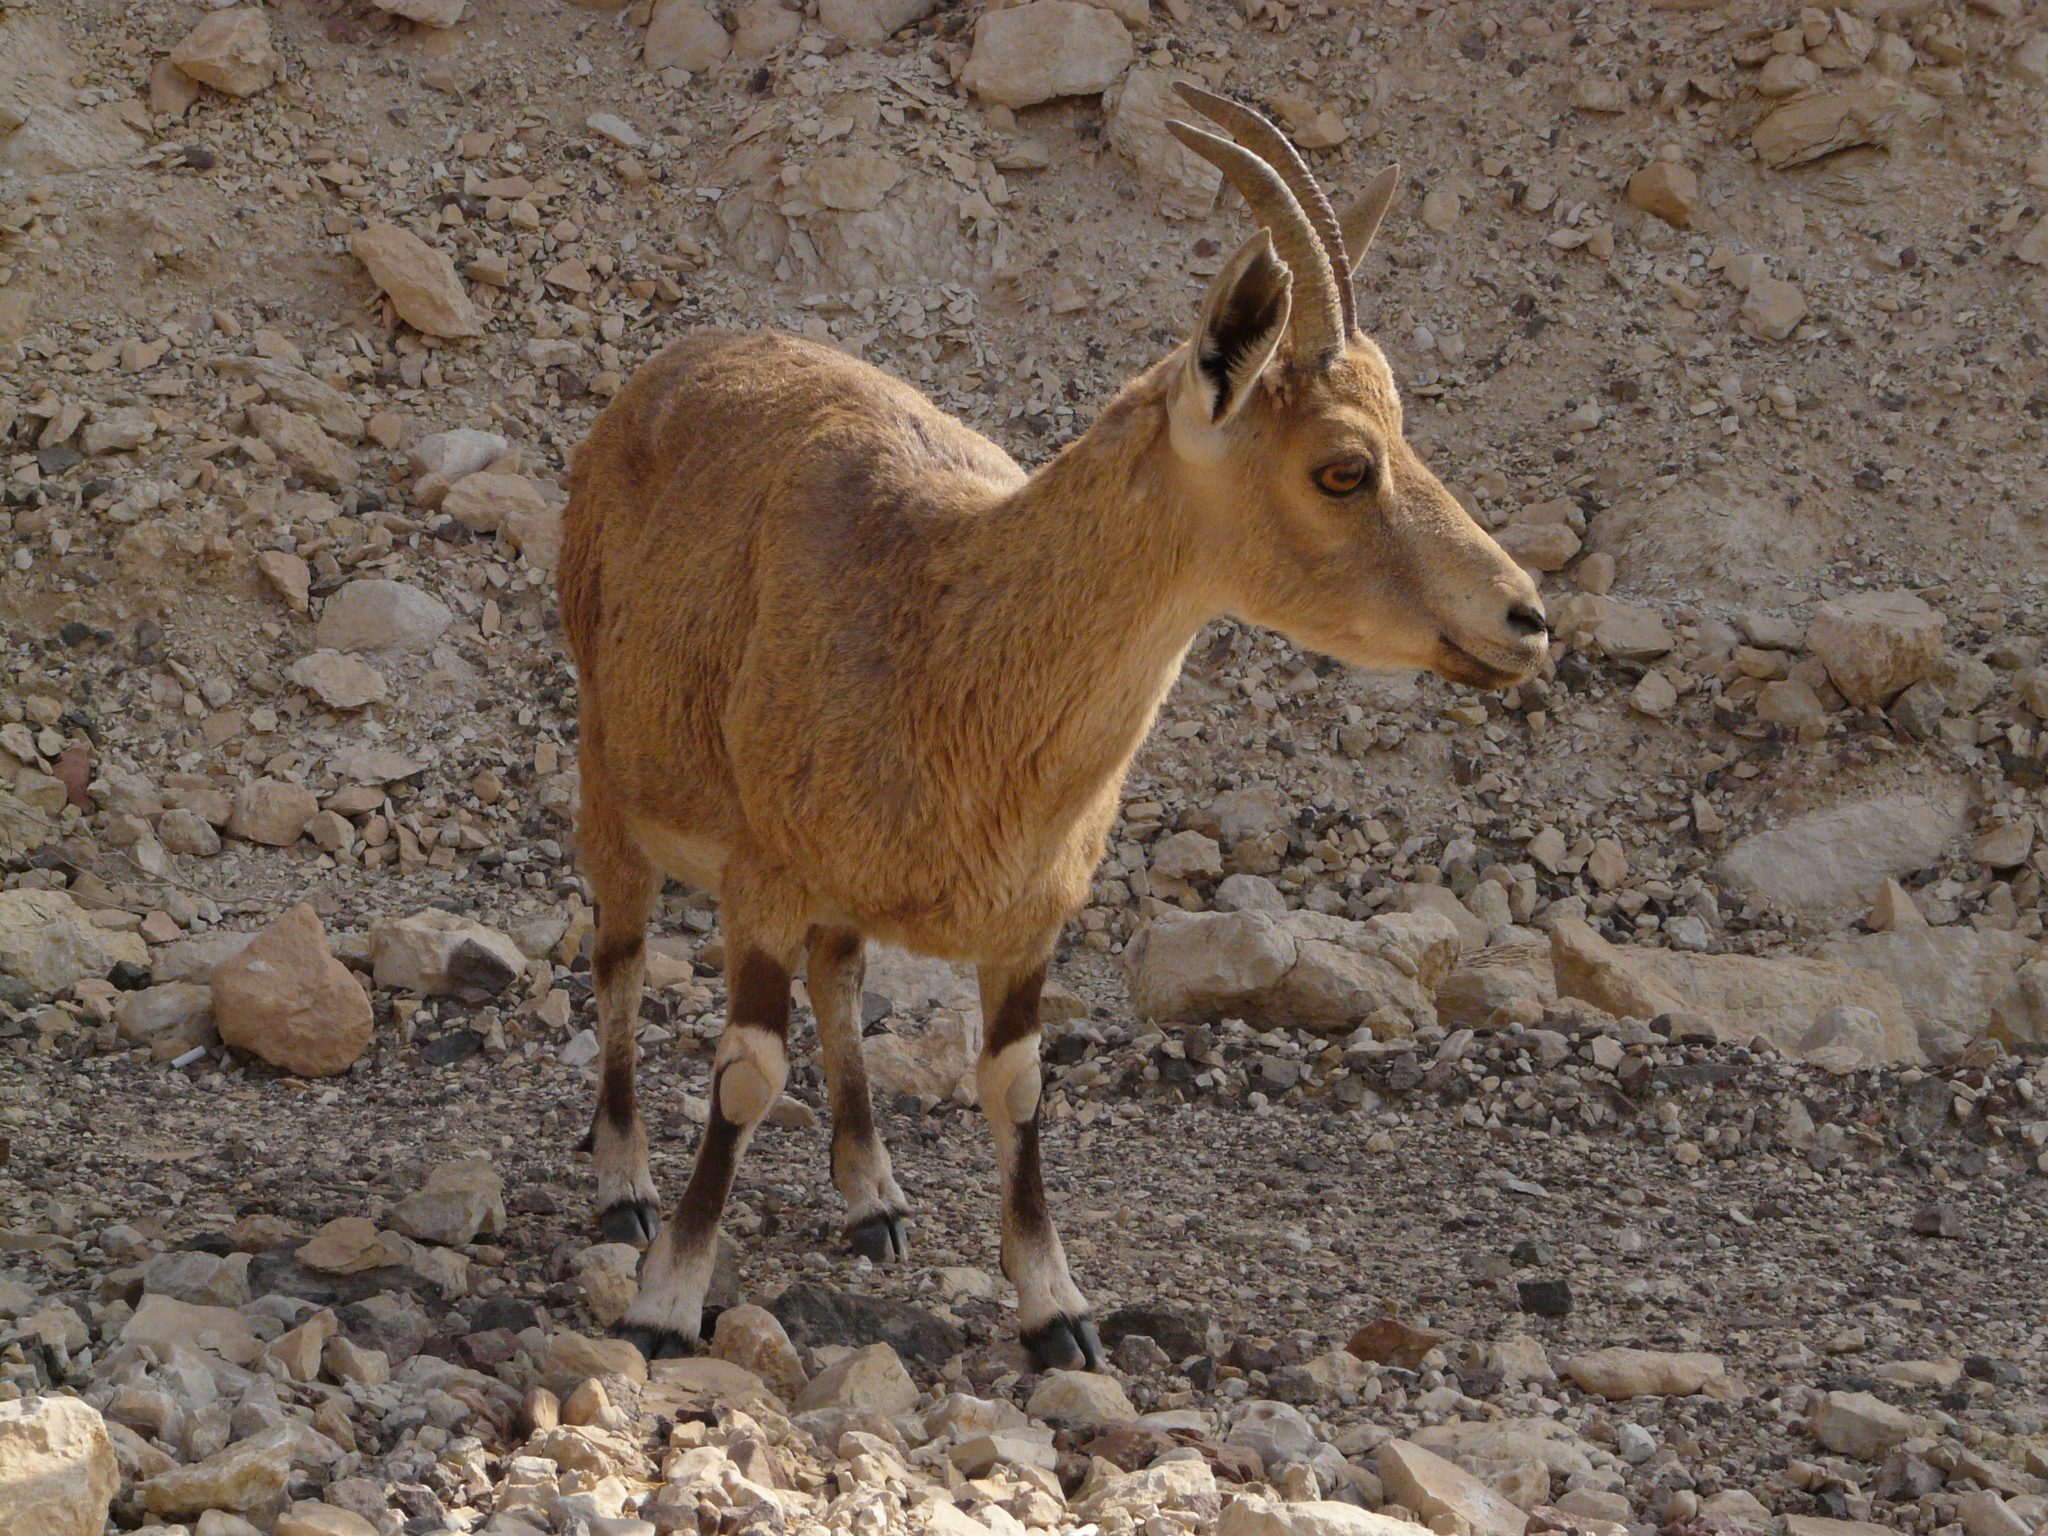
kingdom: Animalia
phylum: Chordata
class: Mammalia
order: Artiodactyla
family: Bovidae
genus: Capra
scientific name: Capra nubiana
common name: Nubian ibex
